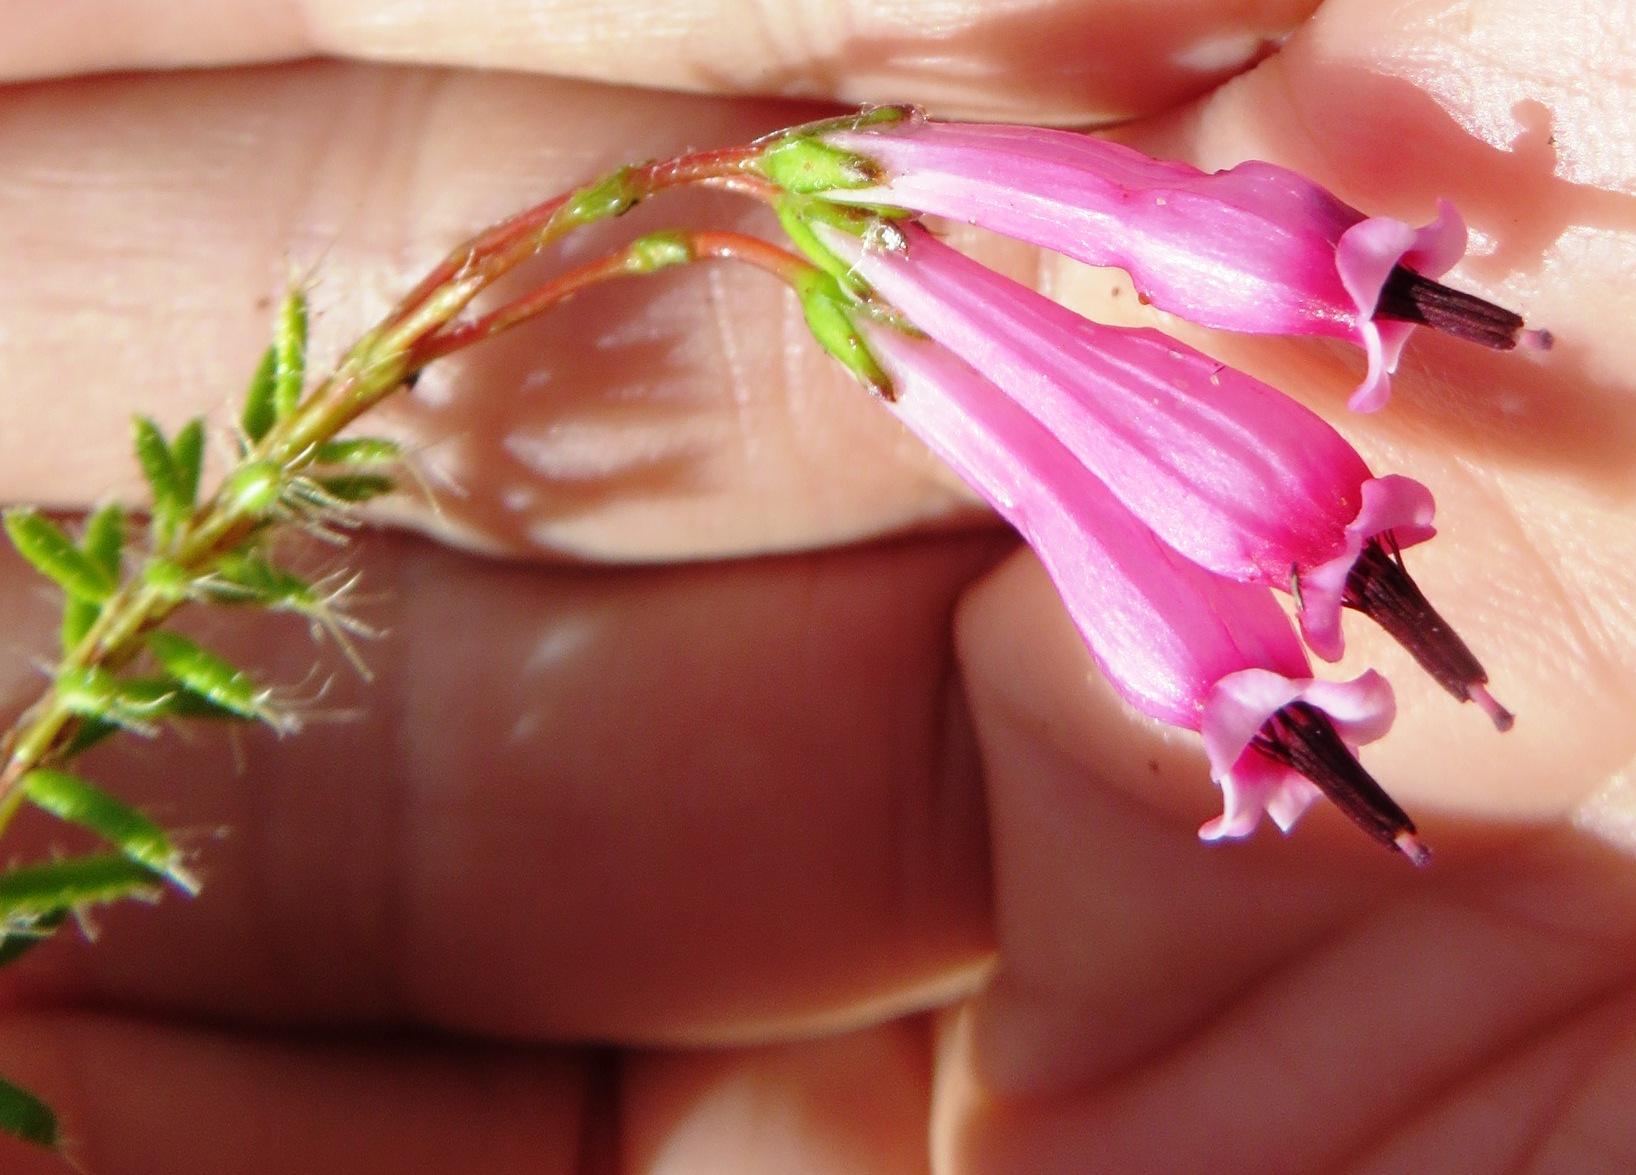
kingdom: Plantae
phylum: Tracheophyta
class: Magnoliopsida
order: Ericales
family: Ericaceae
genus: Erica
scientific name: Erica embothriifolia
